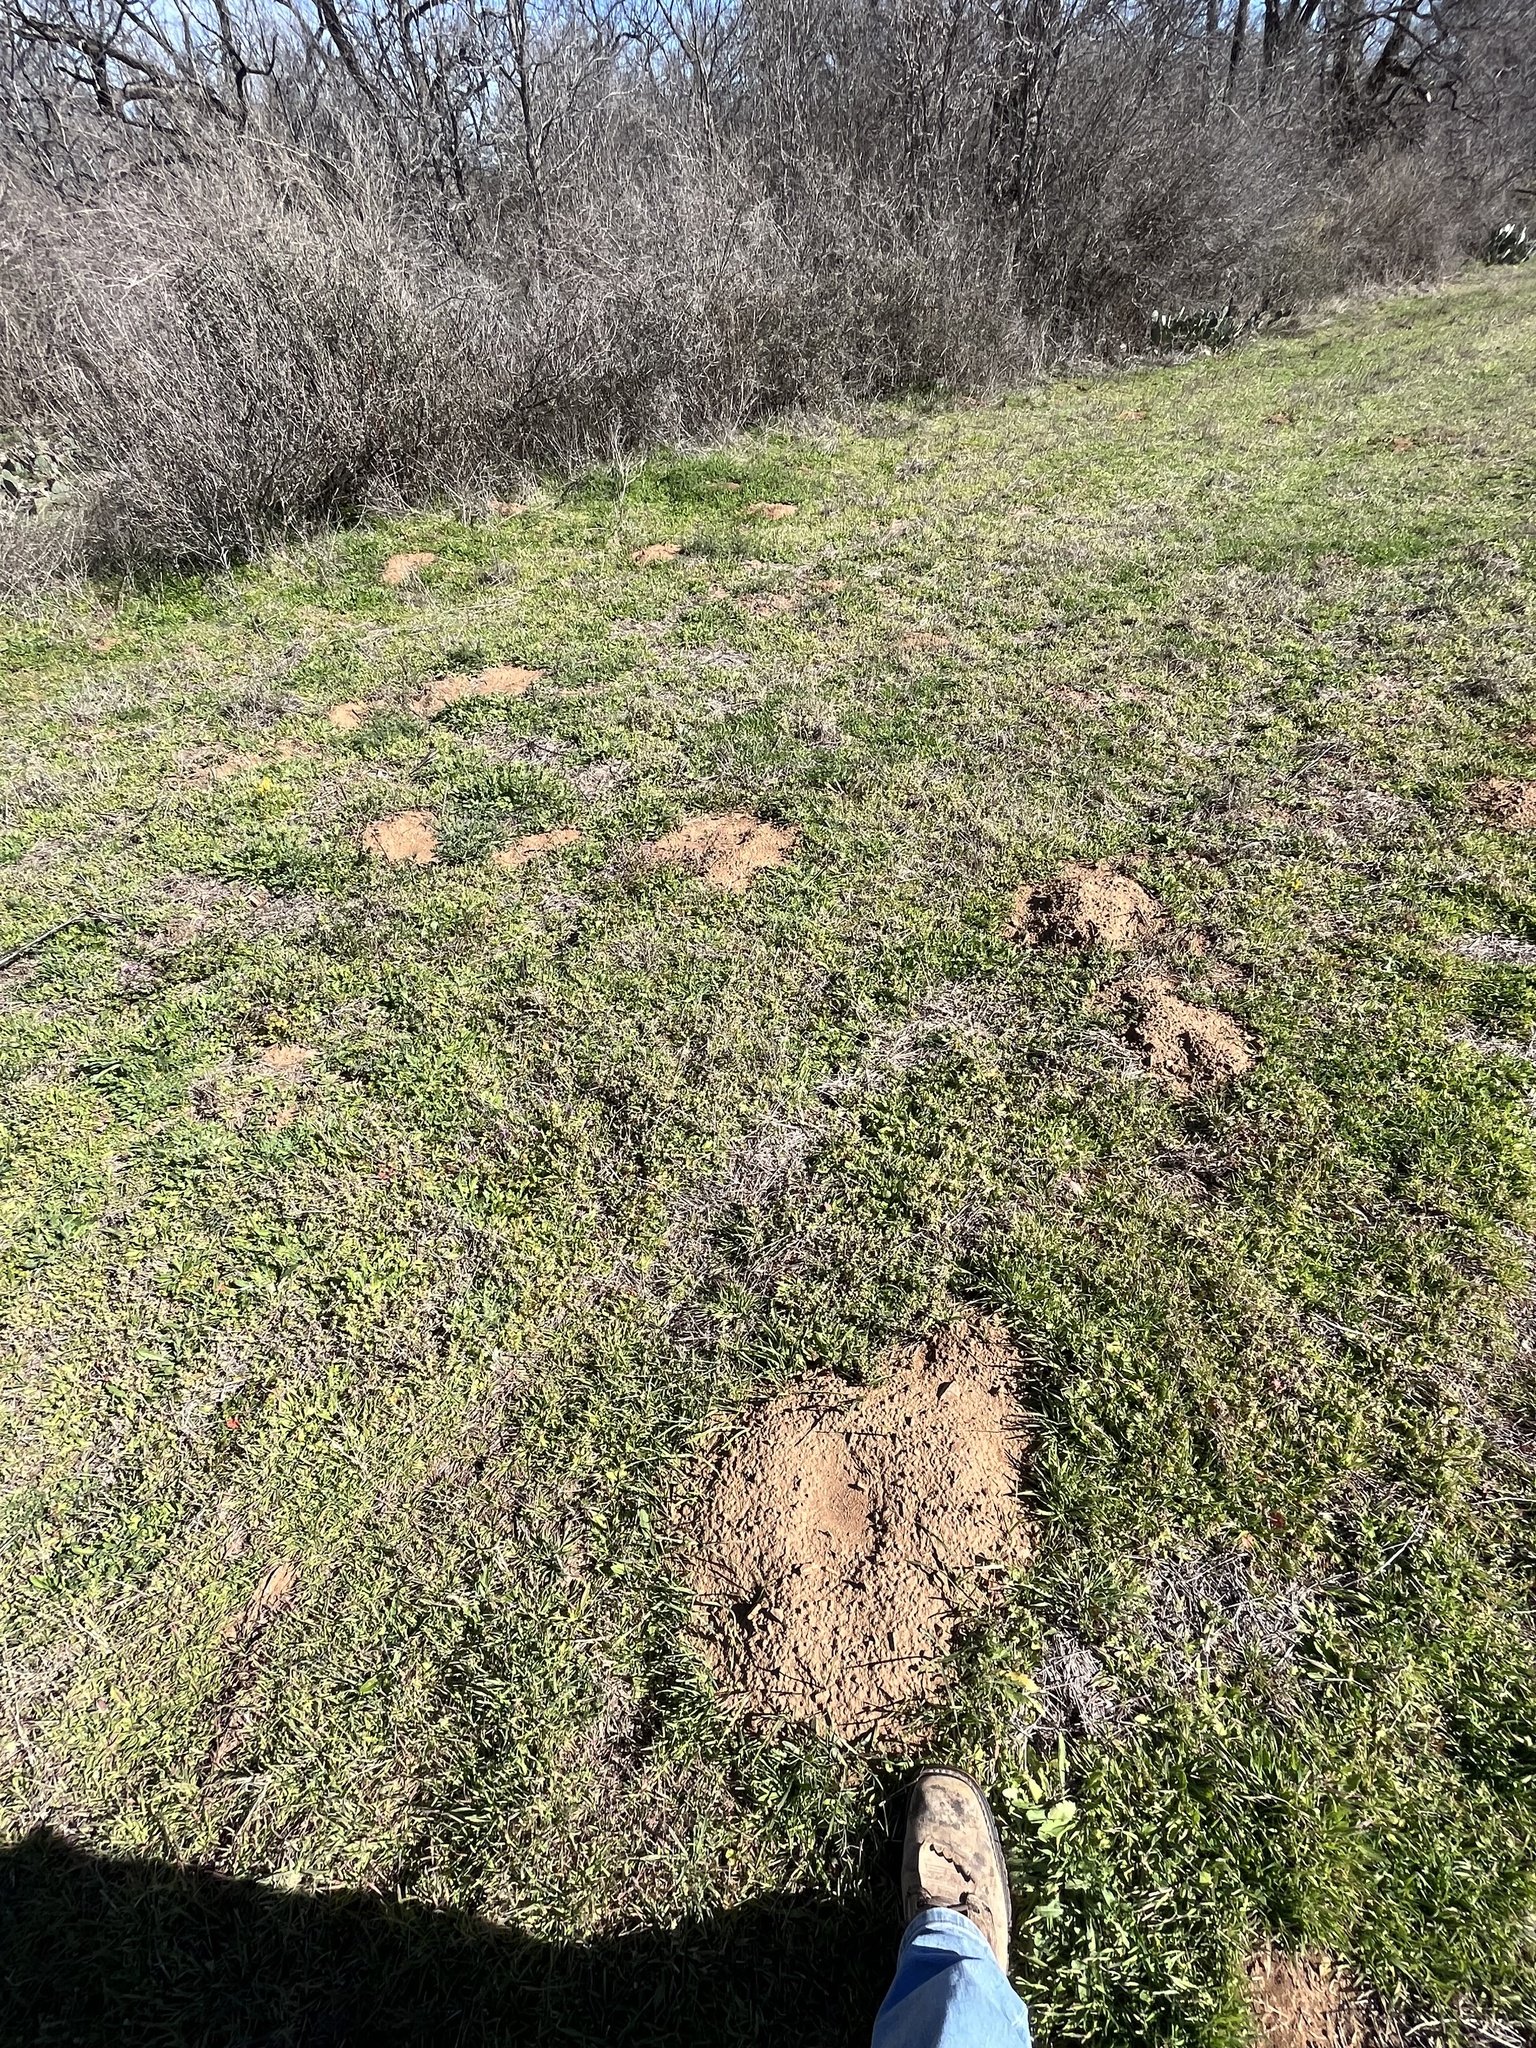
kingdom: Animalia
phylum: Chordata
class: Mammalia
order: Rodentia
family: Geomyidae
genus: Geomys
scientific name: Geomys texensis
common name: Llano pocket gopher
